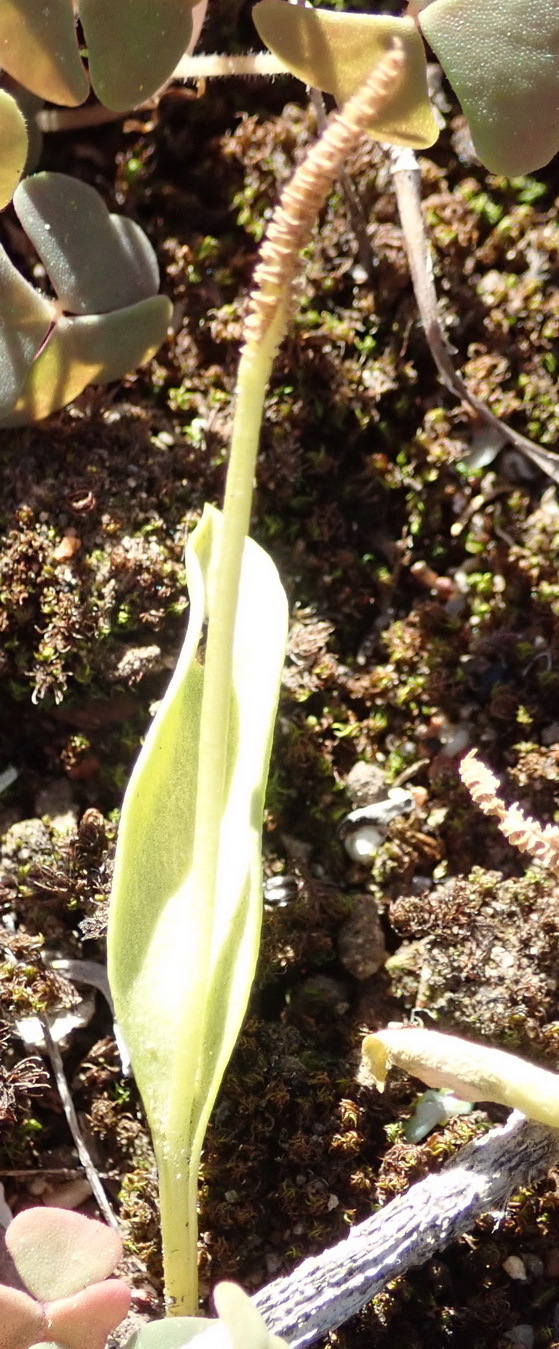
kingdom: Plantae
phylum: Tracheophyta
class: Polypodiopsida
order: Ophioglossales
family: Ophioglossaceae
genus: Ophioglossum
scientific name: Ophioglossum polyphyllum
